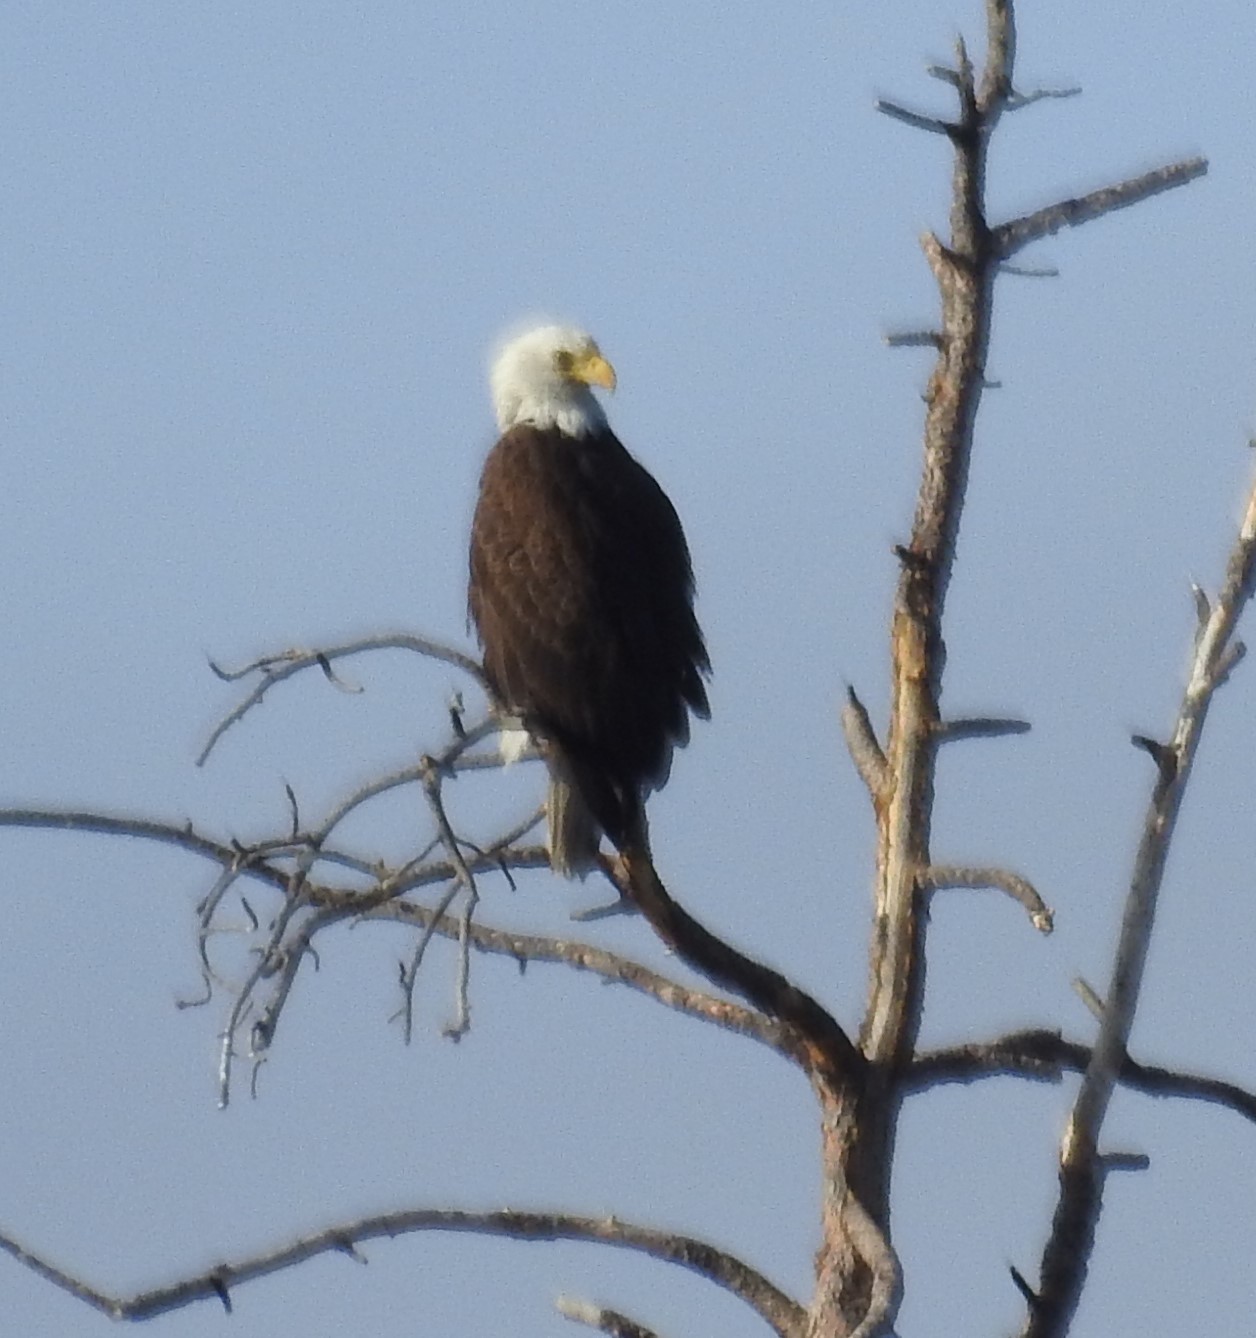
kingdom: Animalia
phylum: Chordata
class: Aves
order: Accipitriformes
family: Accipitridae
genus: Haliaeetus
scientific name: Haliaeetus leucocephalus
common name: Bald eagle
